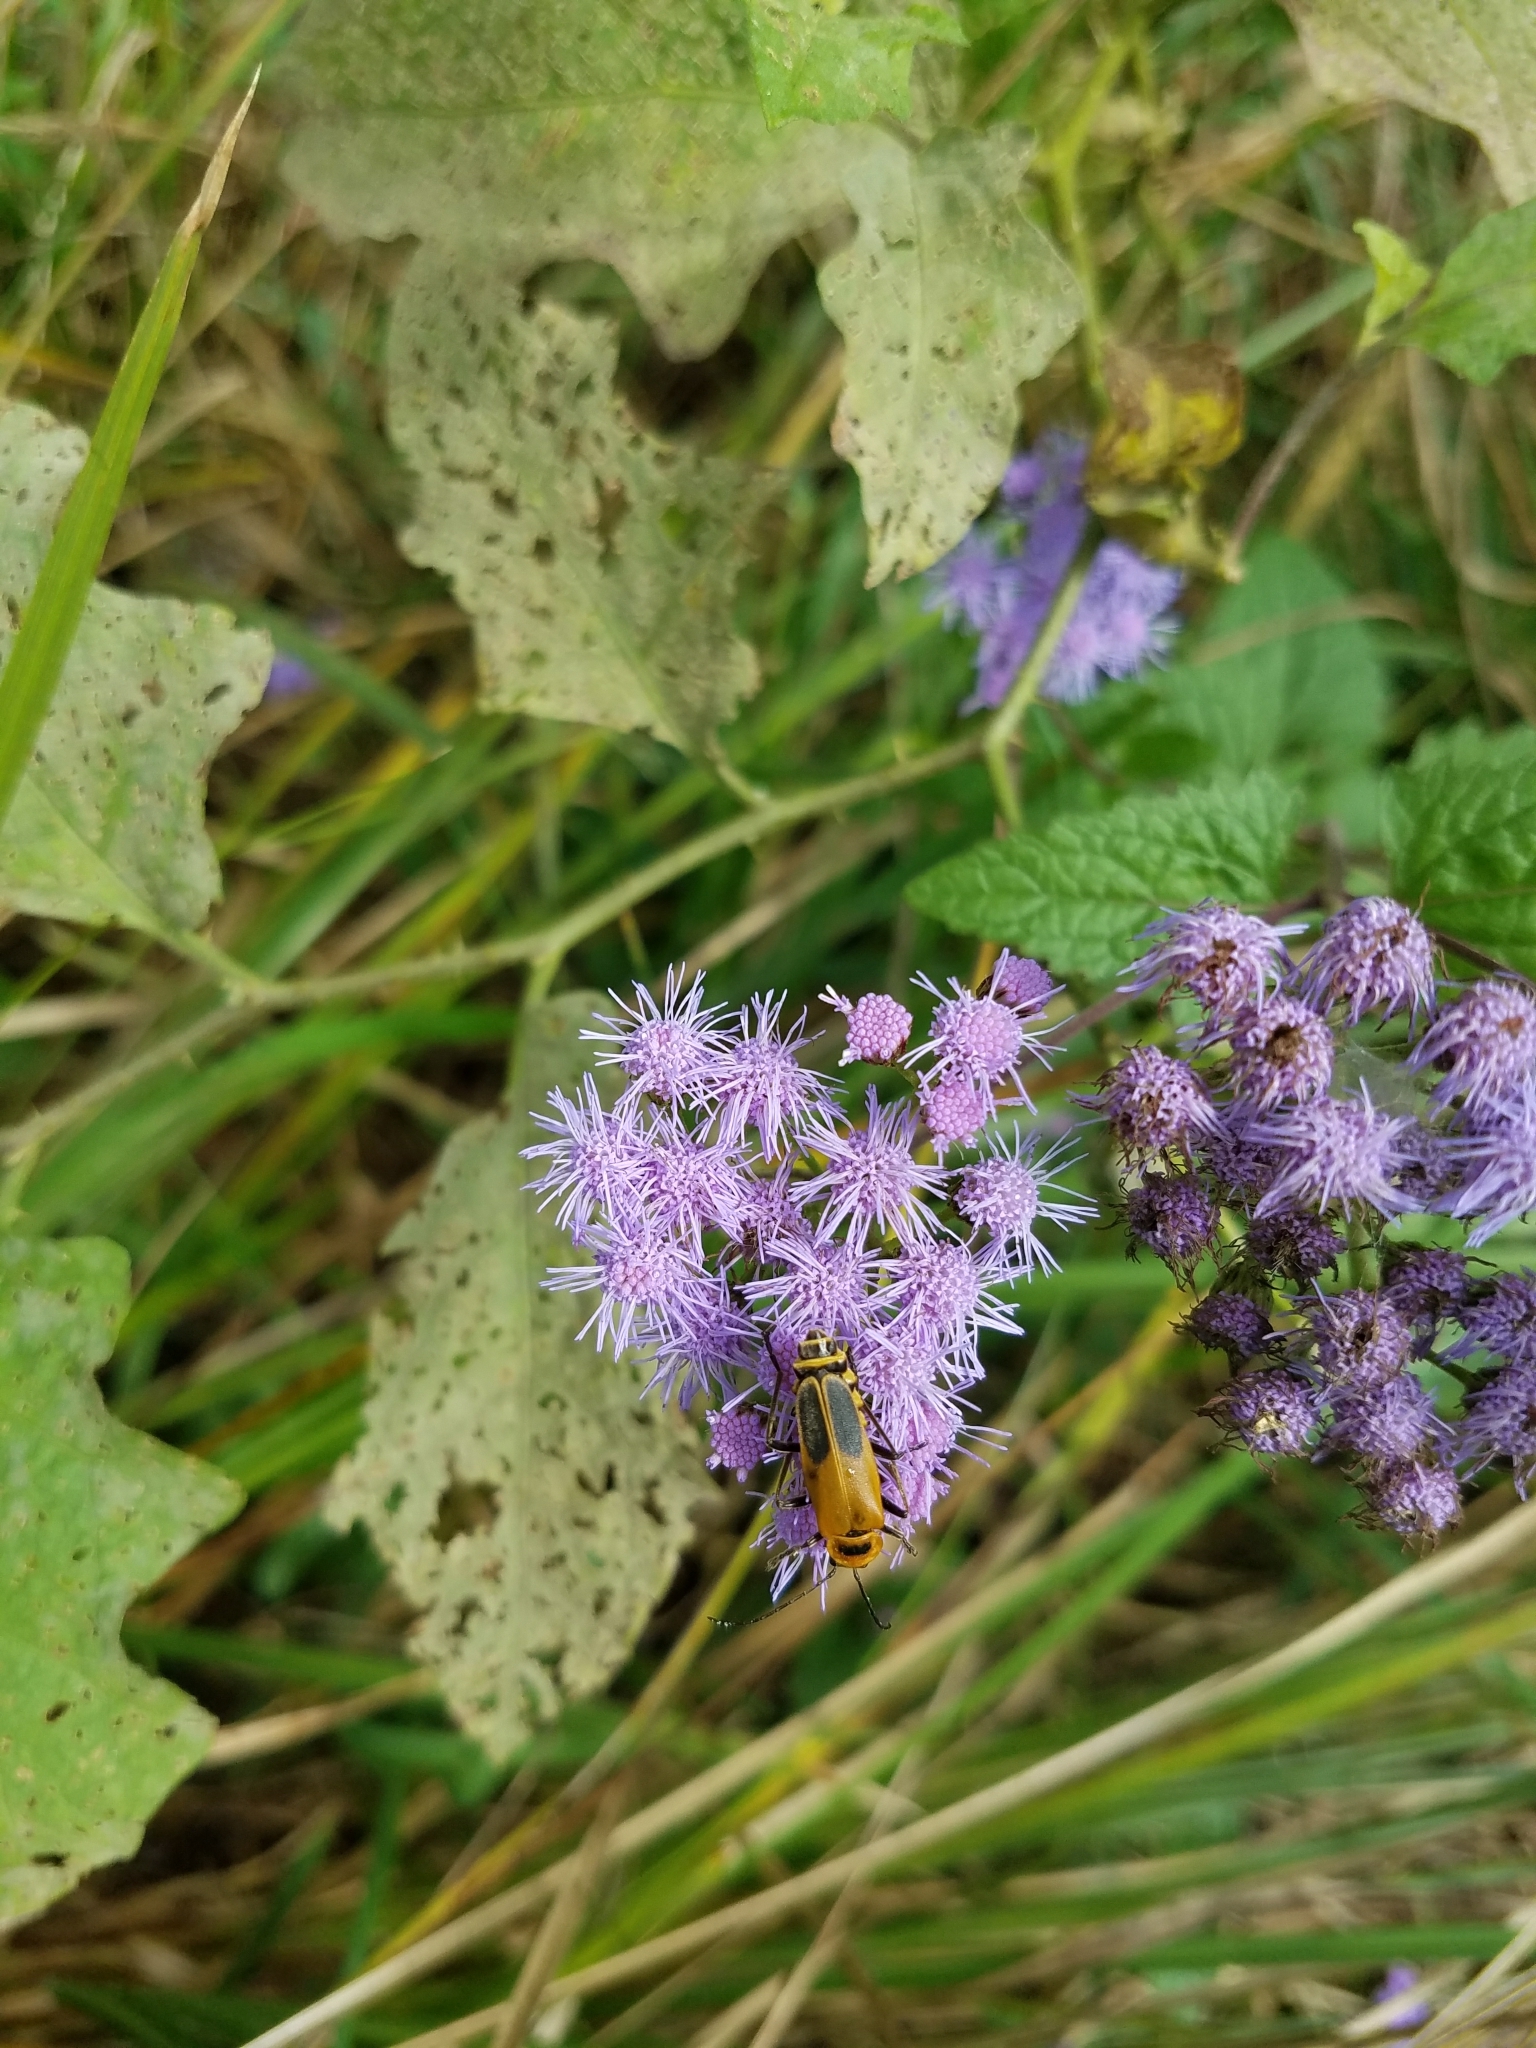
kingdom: Animalia
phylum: Arthropoda
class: Insecta
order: Coleoptera
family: Cantharidae
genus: Chauliognathus
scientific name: Chauliognathus pensylvanicus
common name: Goldenrod soldier beetle
